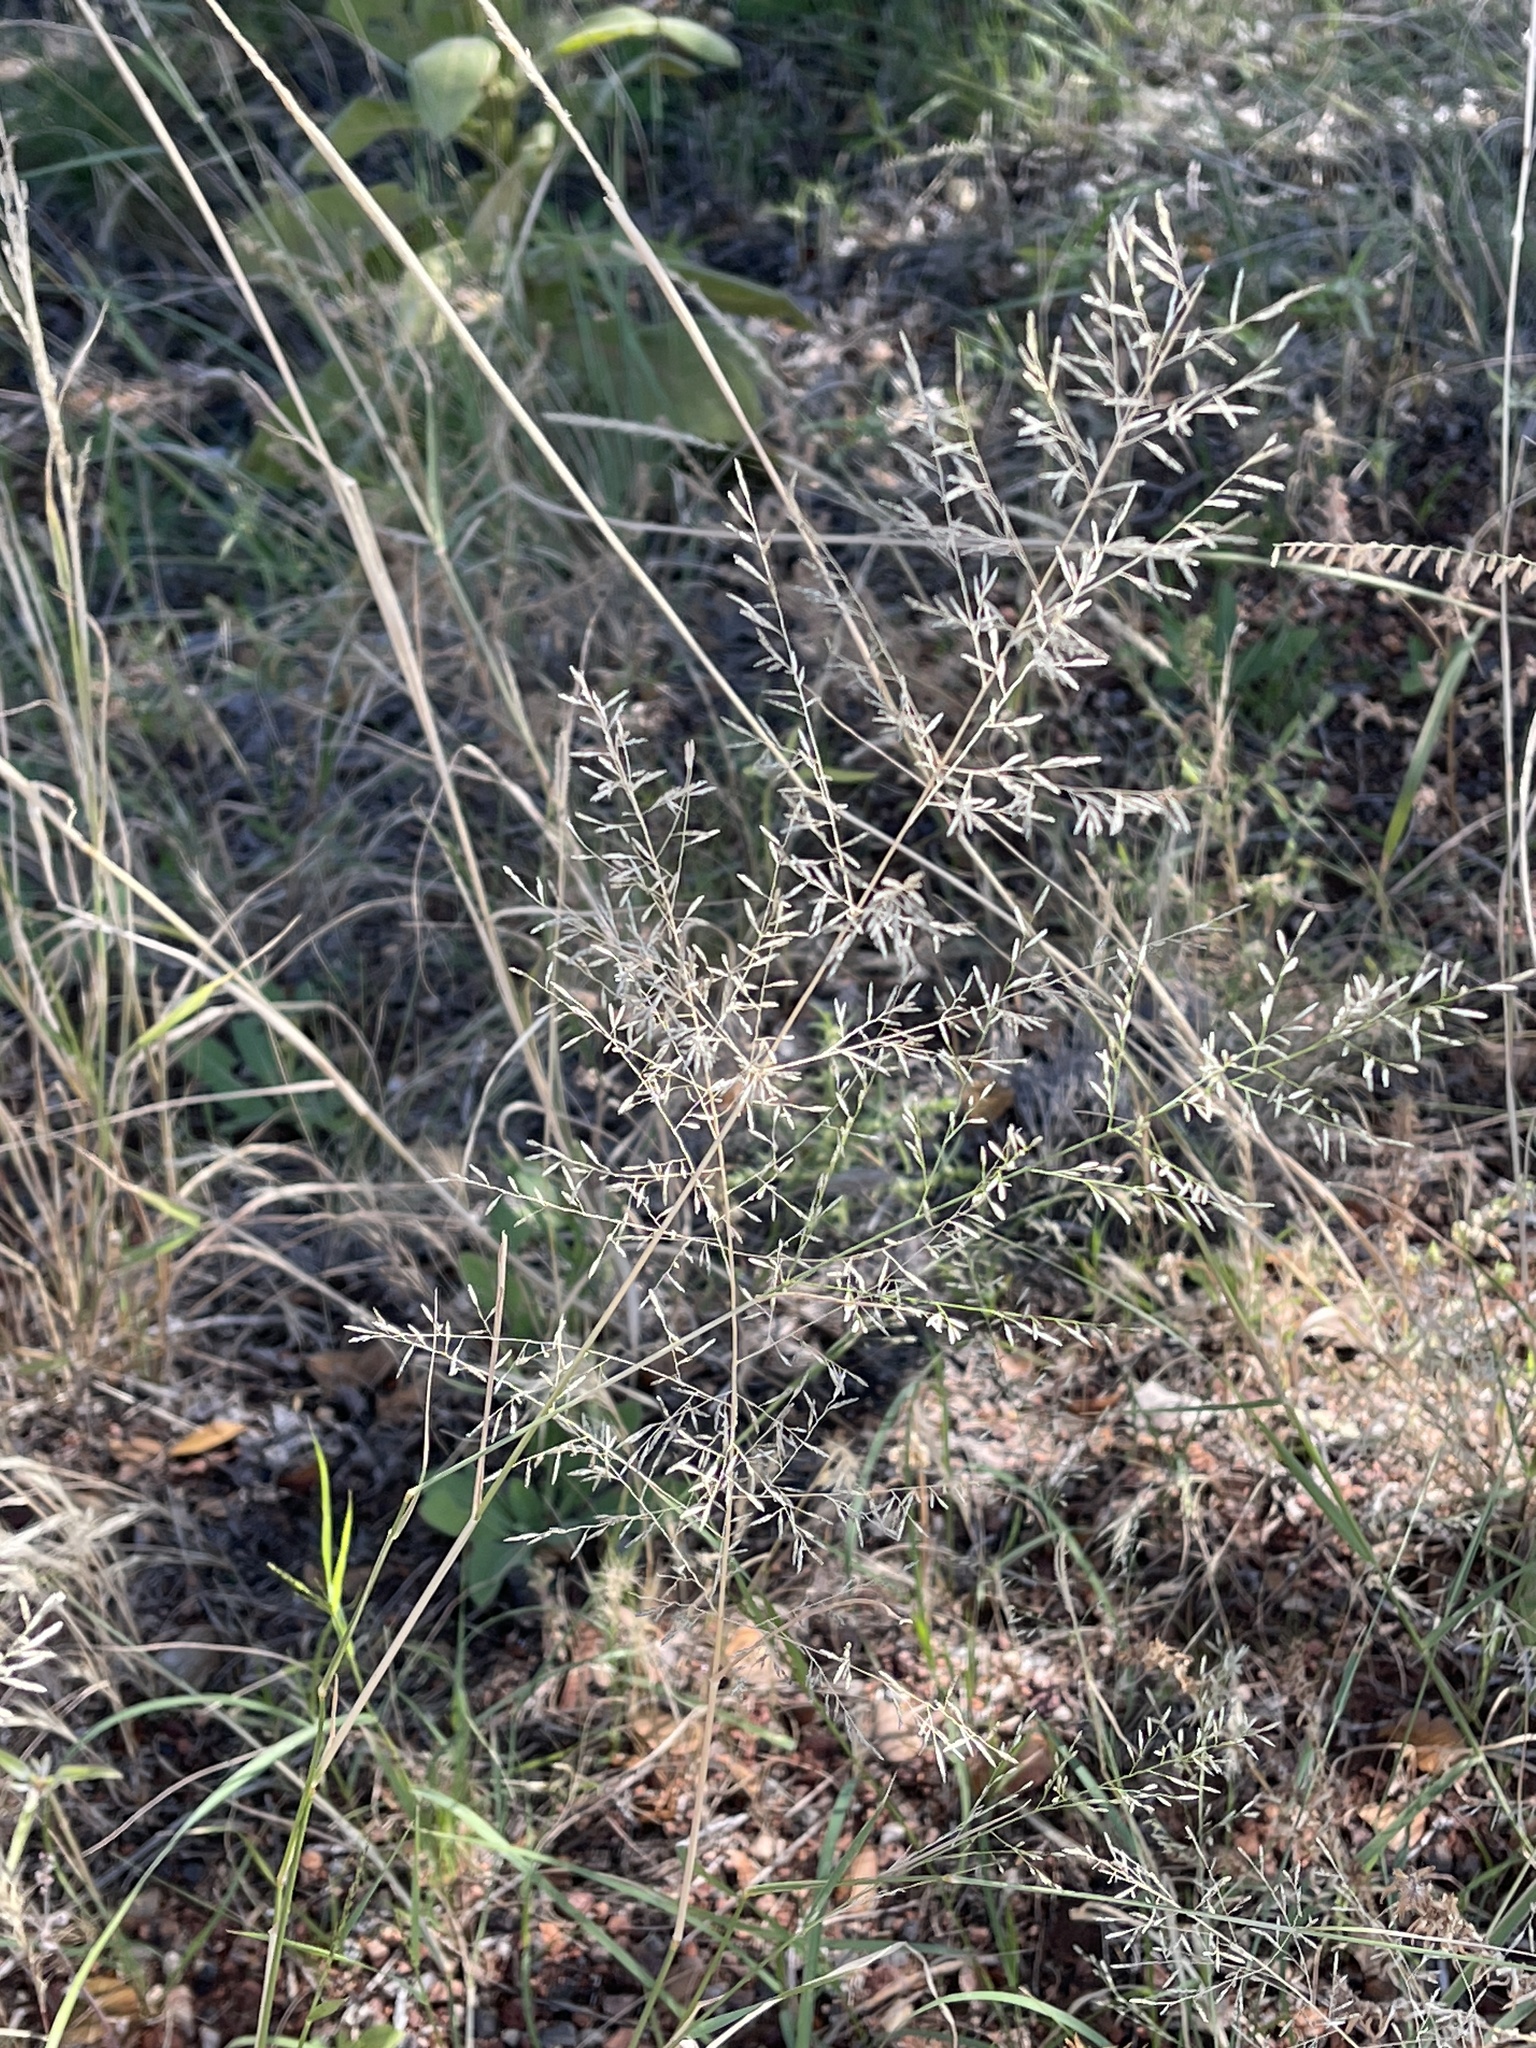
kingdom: Plantae
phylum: Tracheophyta
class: Liliopsida
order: Poales
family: Poaceae
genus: Eragrostis
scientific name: Eragrostis lehmanniana
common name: Lehmann lovegrass
